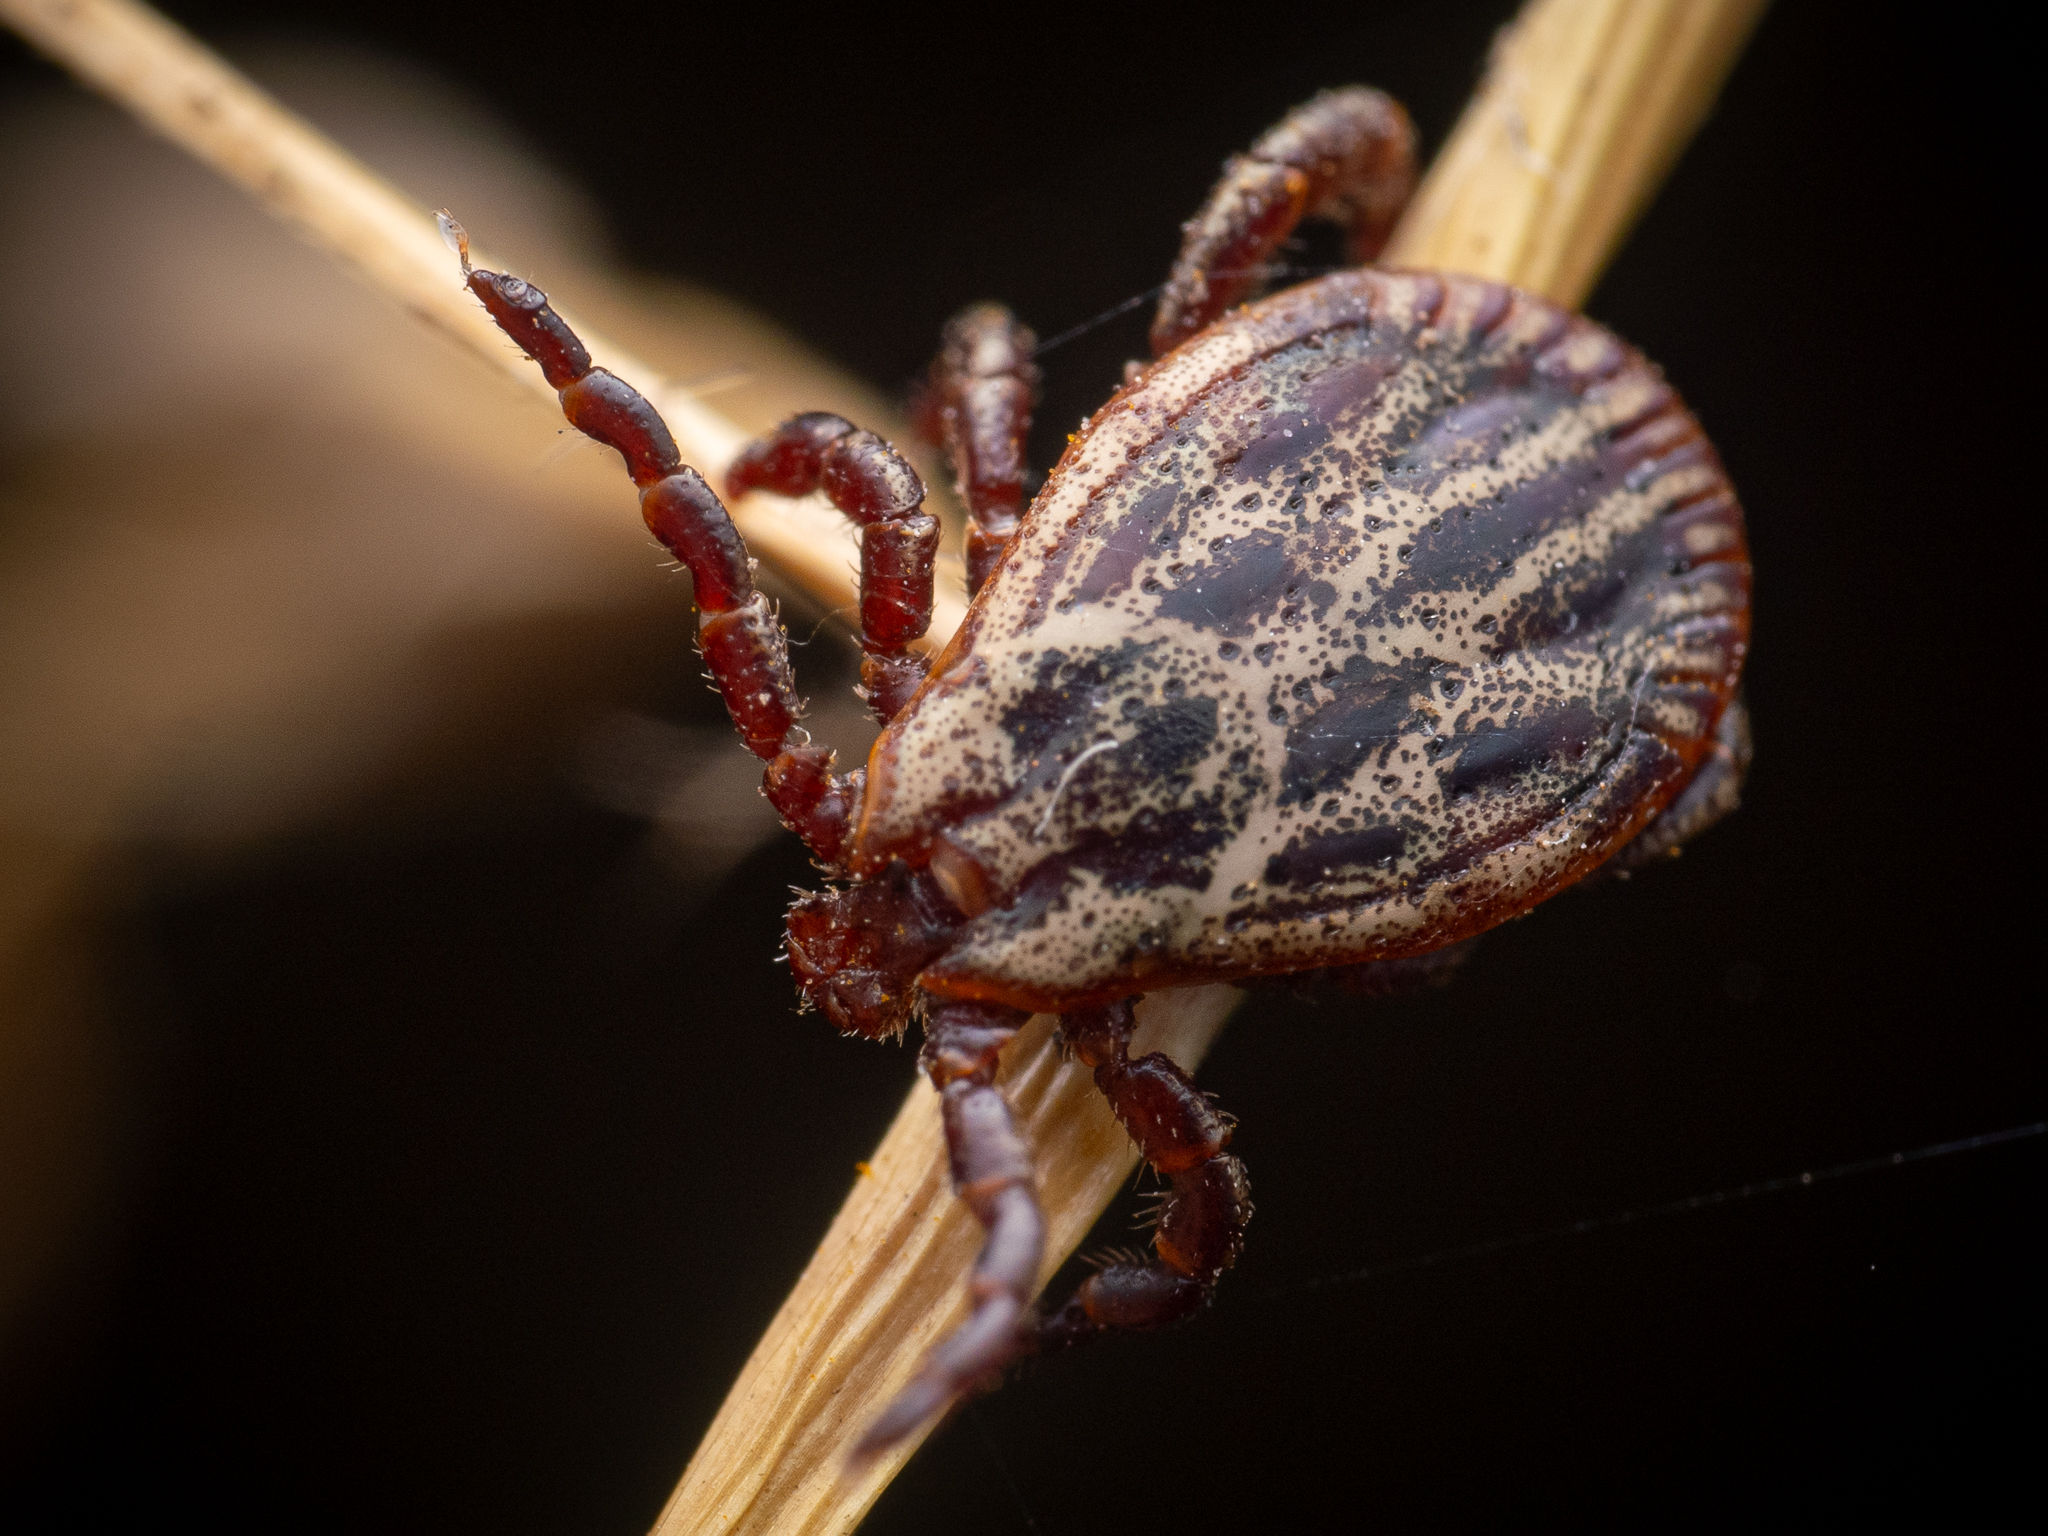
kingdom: Animalia
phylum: Arthropoda
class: Arachnida
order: Ixodida
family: Ixodidae
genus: Dermacentor
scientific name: Dermacentor reticulatus
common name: Ornate cow tick
